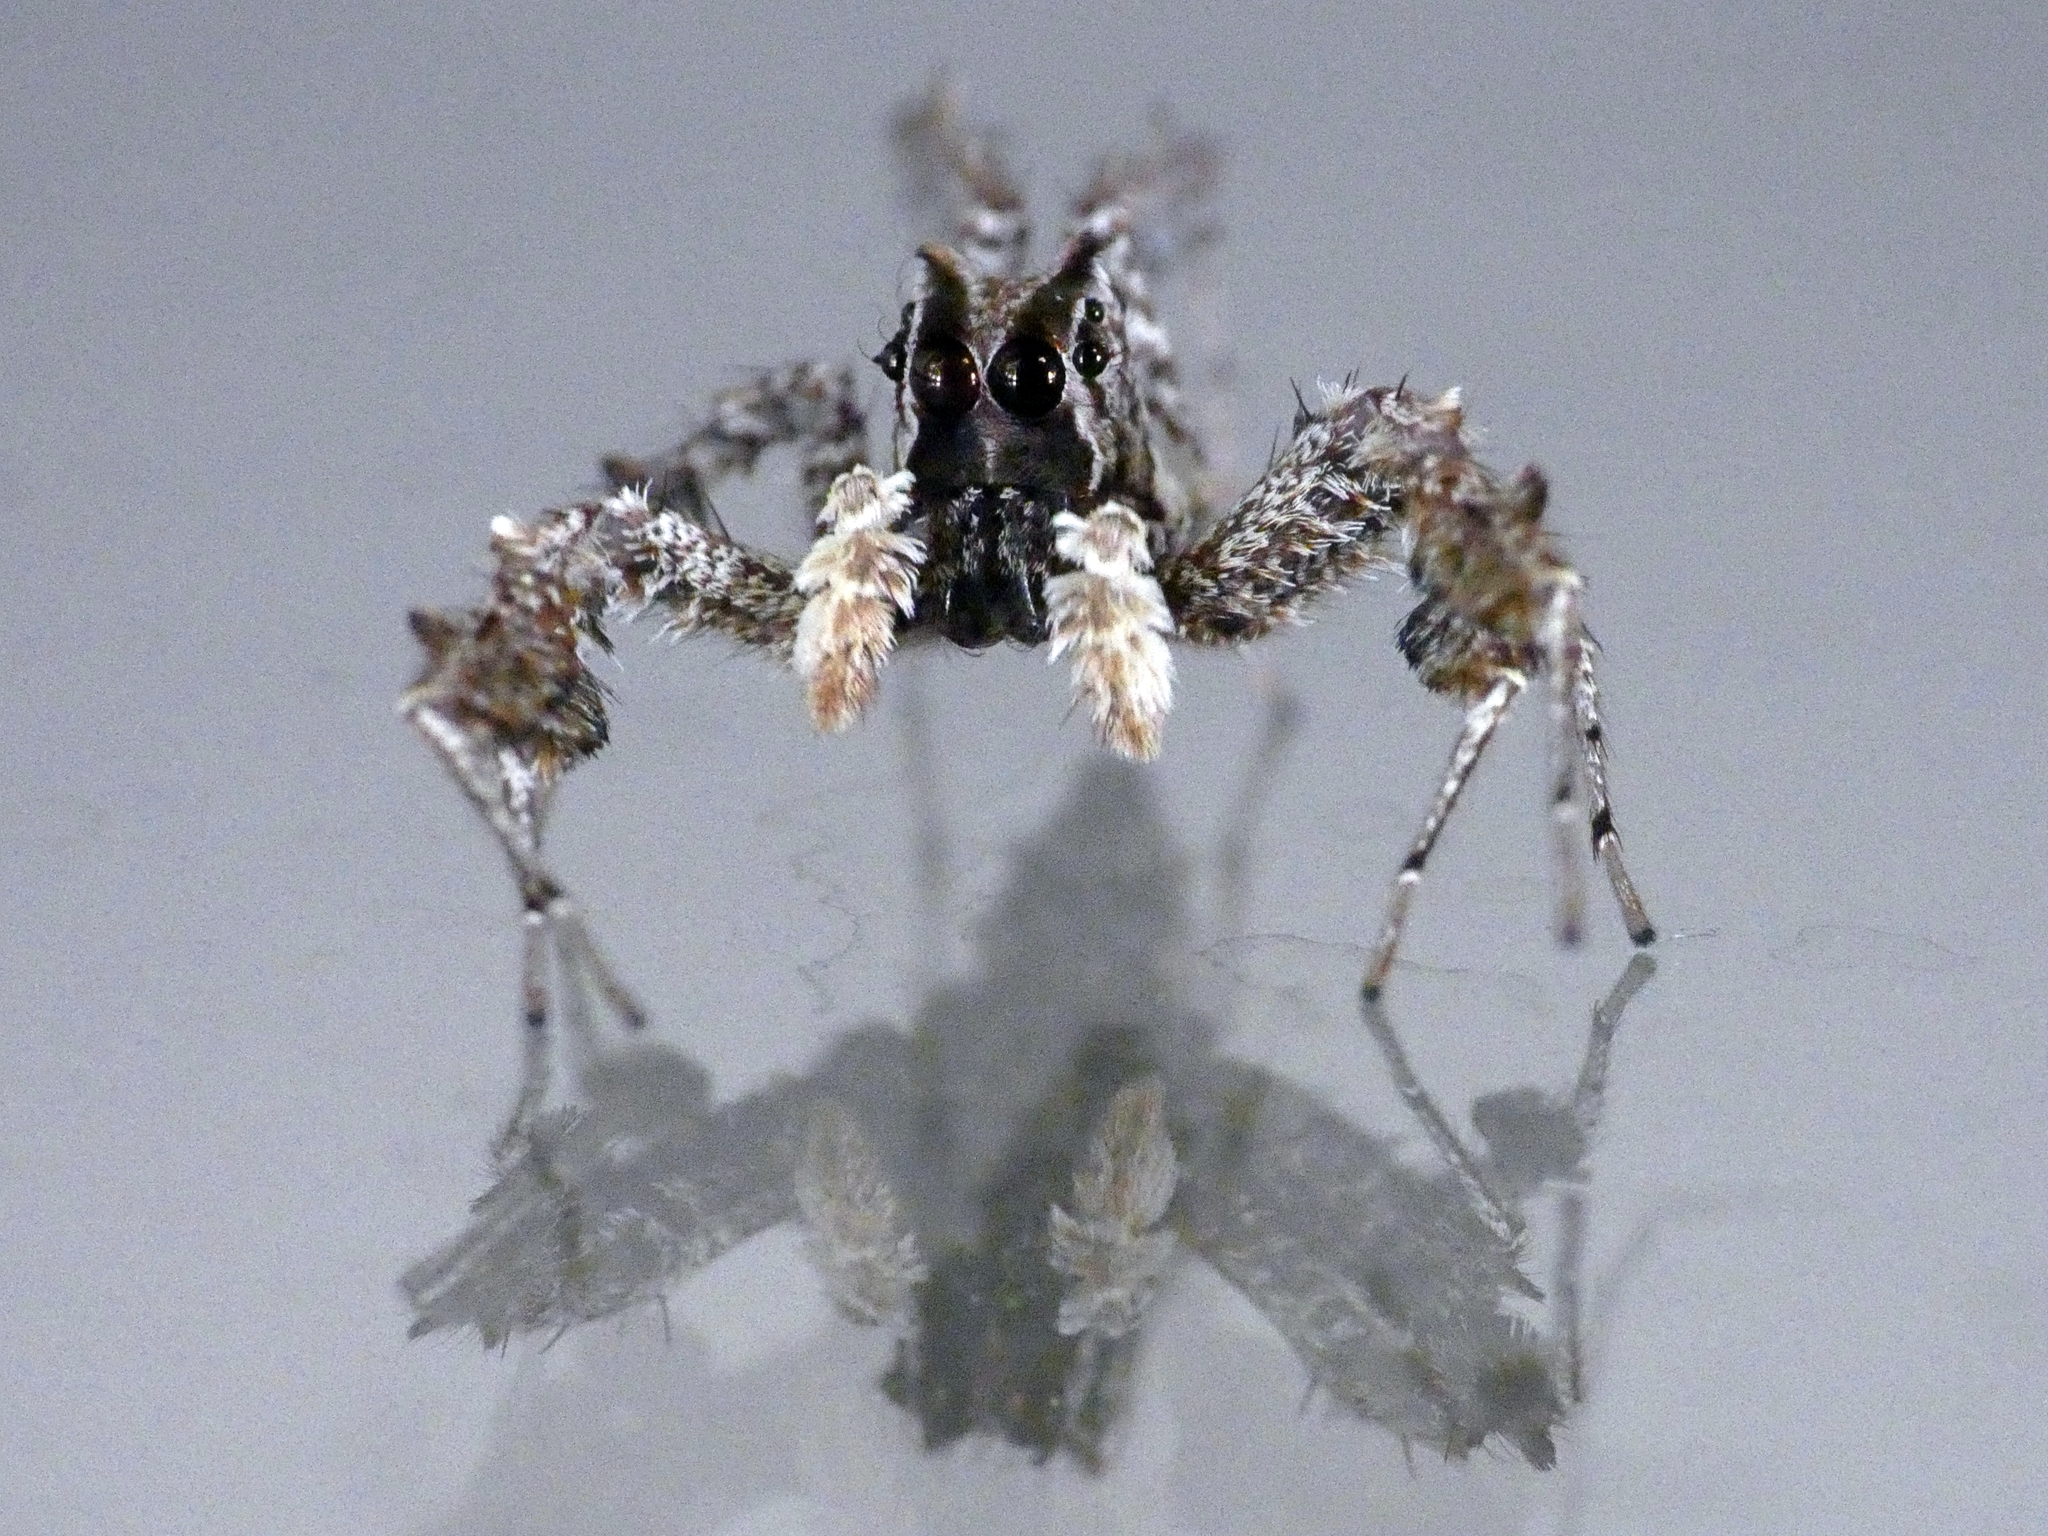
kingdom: Animalia
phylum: Arthropoda
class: Arachnida
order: Araneae
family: Salticidae
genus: Portia
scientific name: Portia fimbriata
